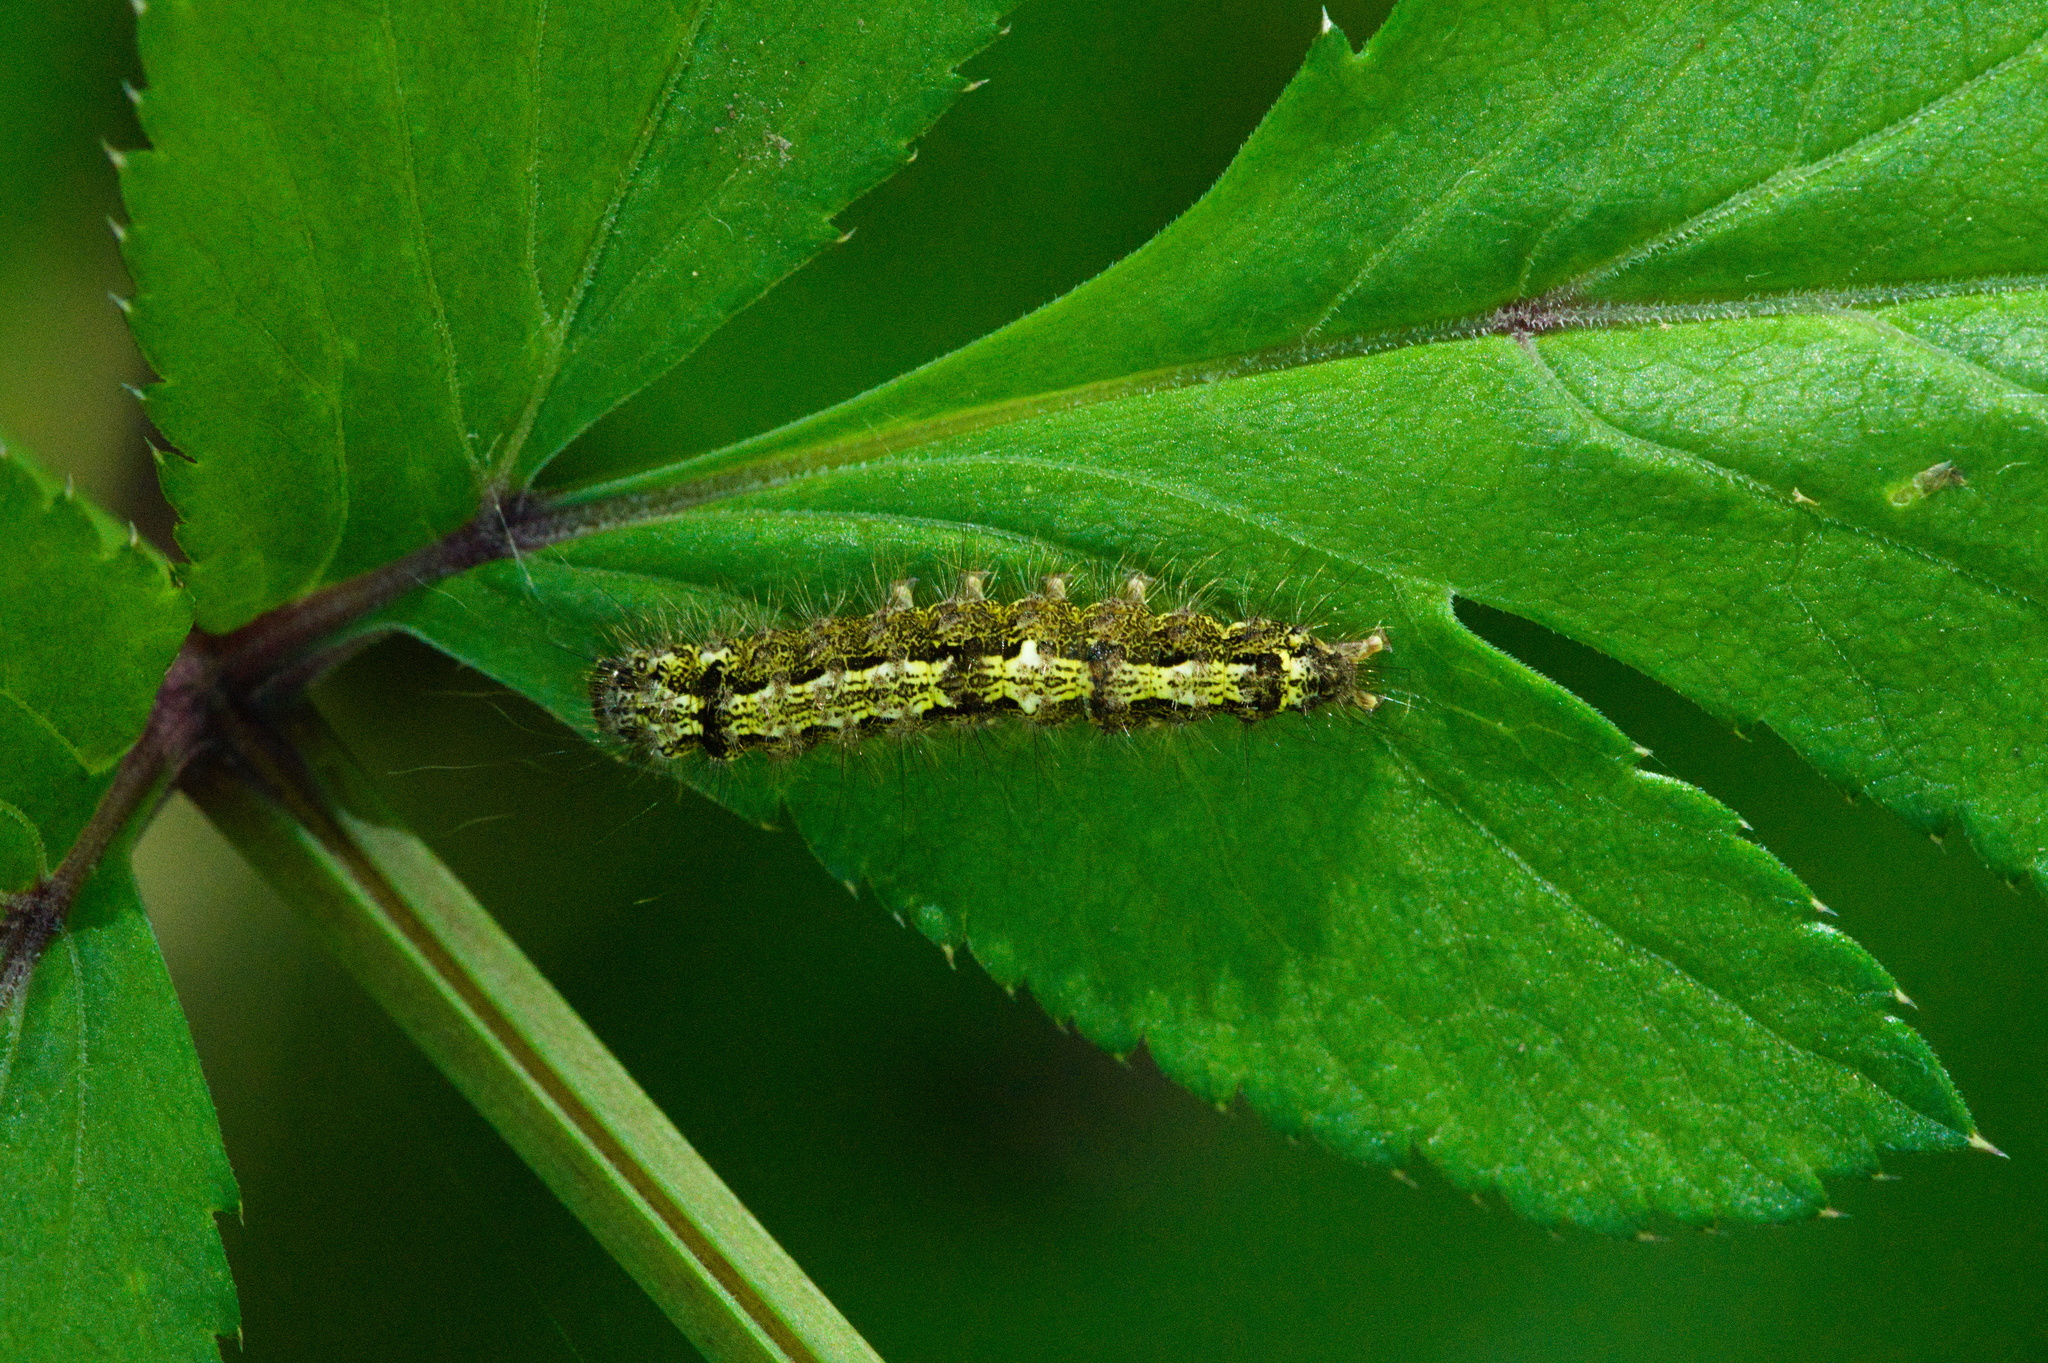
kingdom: Animalia
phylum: Arthropoda
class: Insecta
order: Lepidoptera
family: Erebidae
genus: Katha
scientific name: Katha depressa
